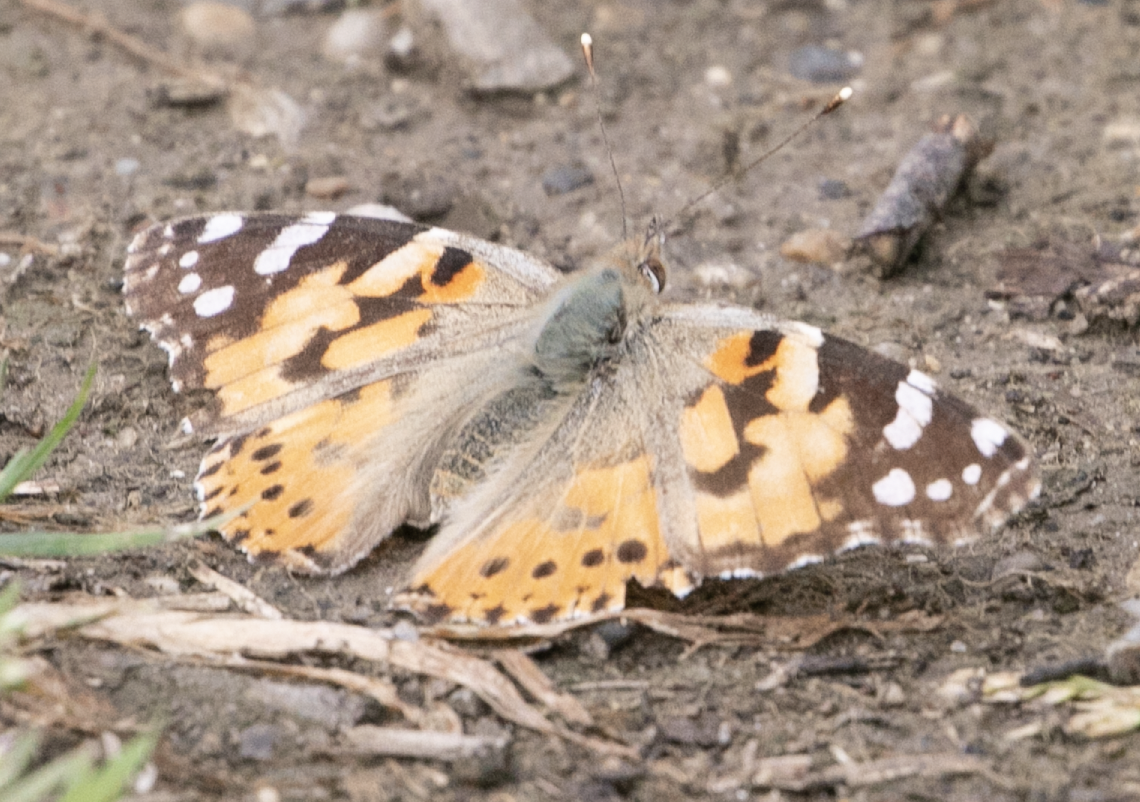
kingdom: Animalia
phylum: Arthropoda
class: Insecta
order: Lepidoptera
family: Nymphalidae
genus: Vanessa
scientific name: Vanessa cardui
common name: Painted lady
